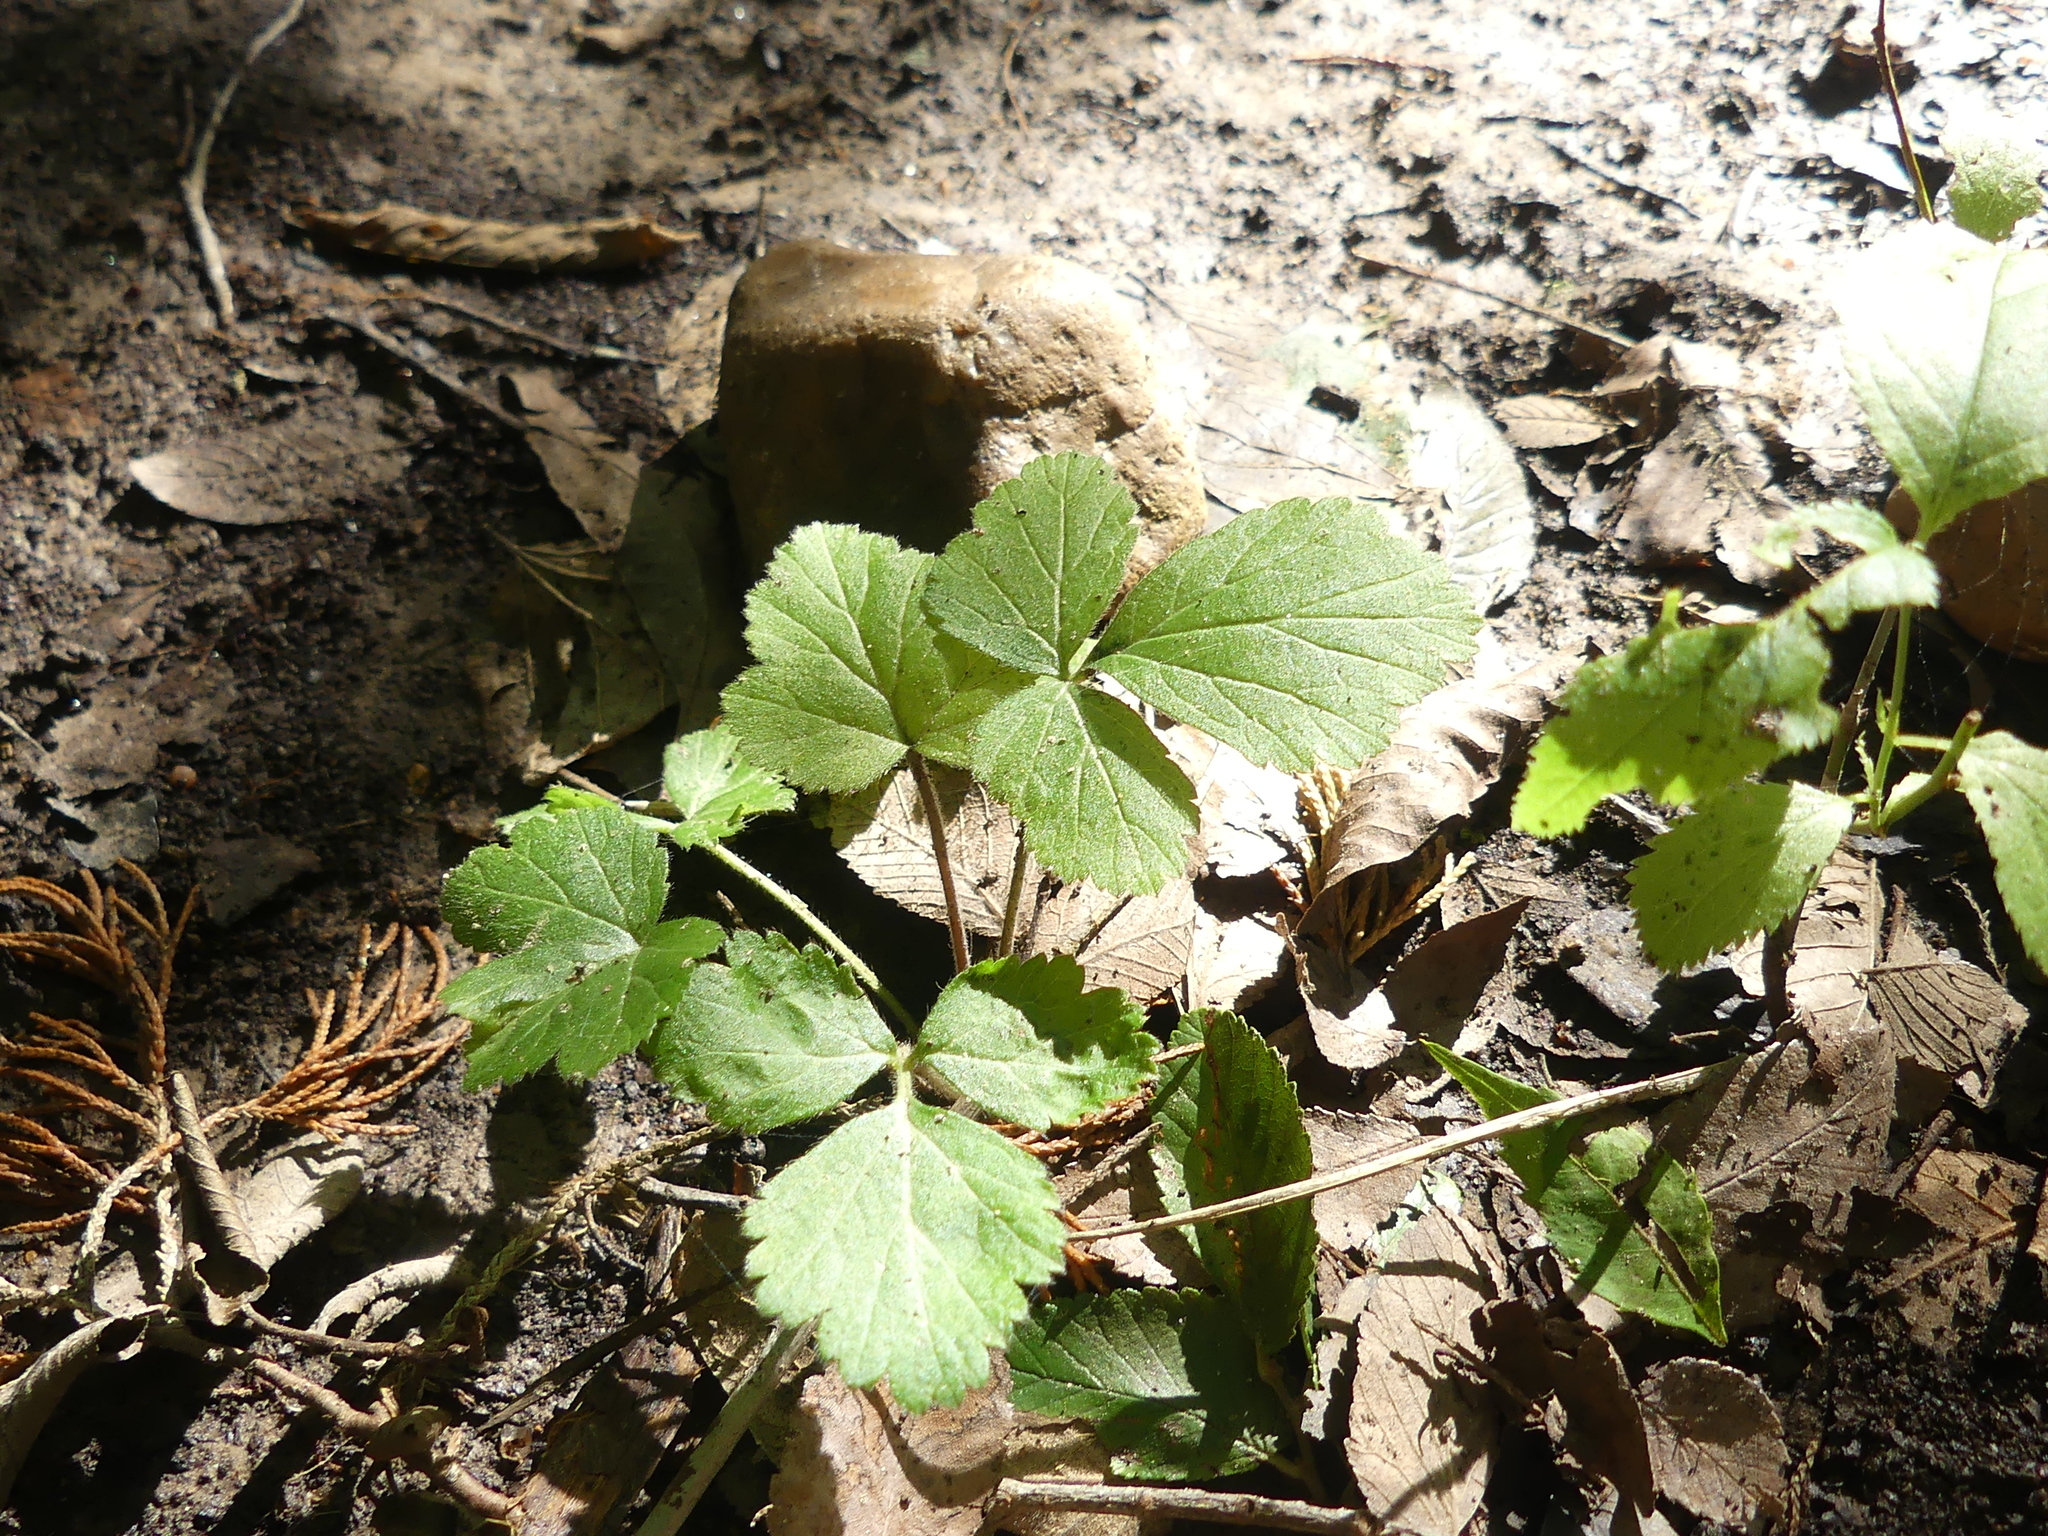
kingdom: Plantae
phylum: Tracheophyta
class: Magnoliopsida
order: Rosales
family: Rosaceae
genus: Geum
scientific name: Geum canadense
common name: White avens
